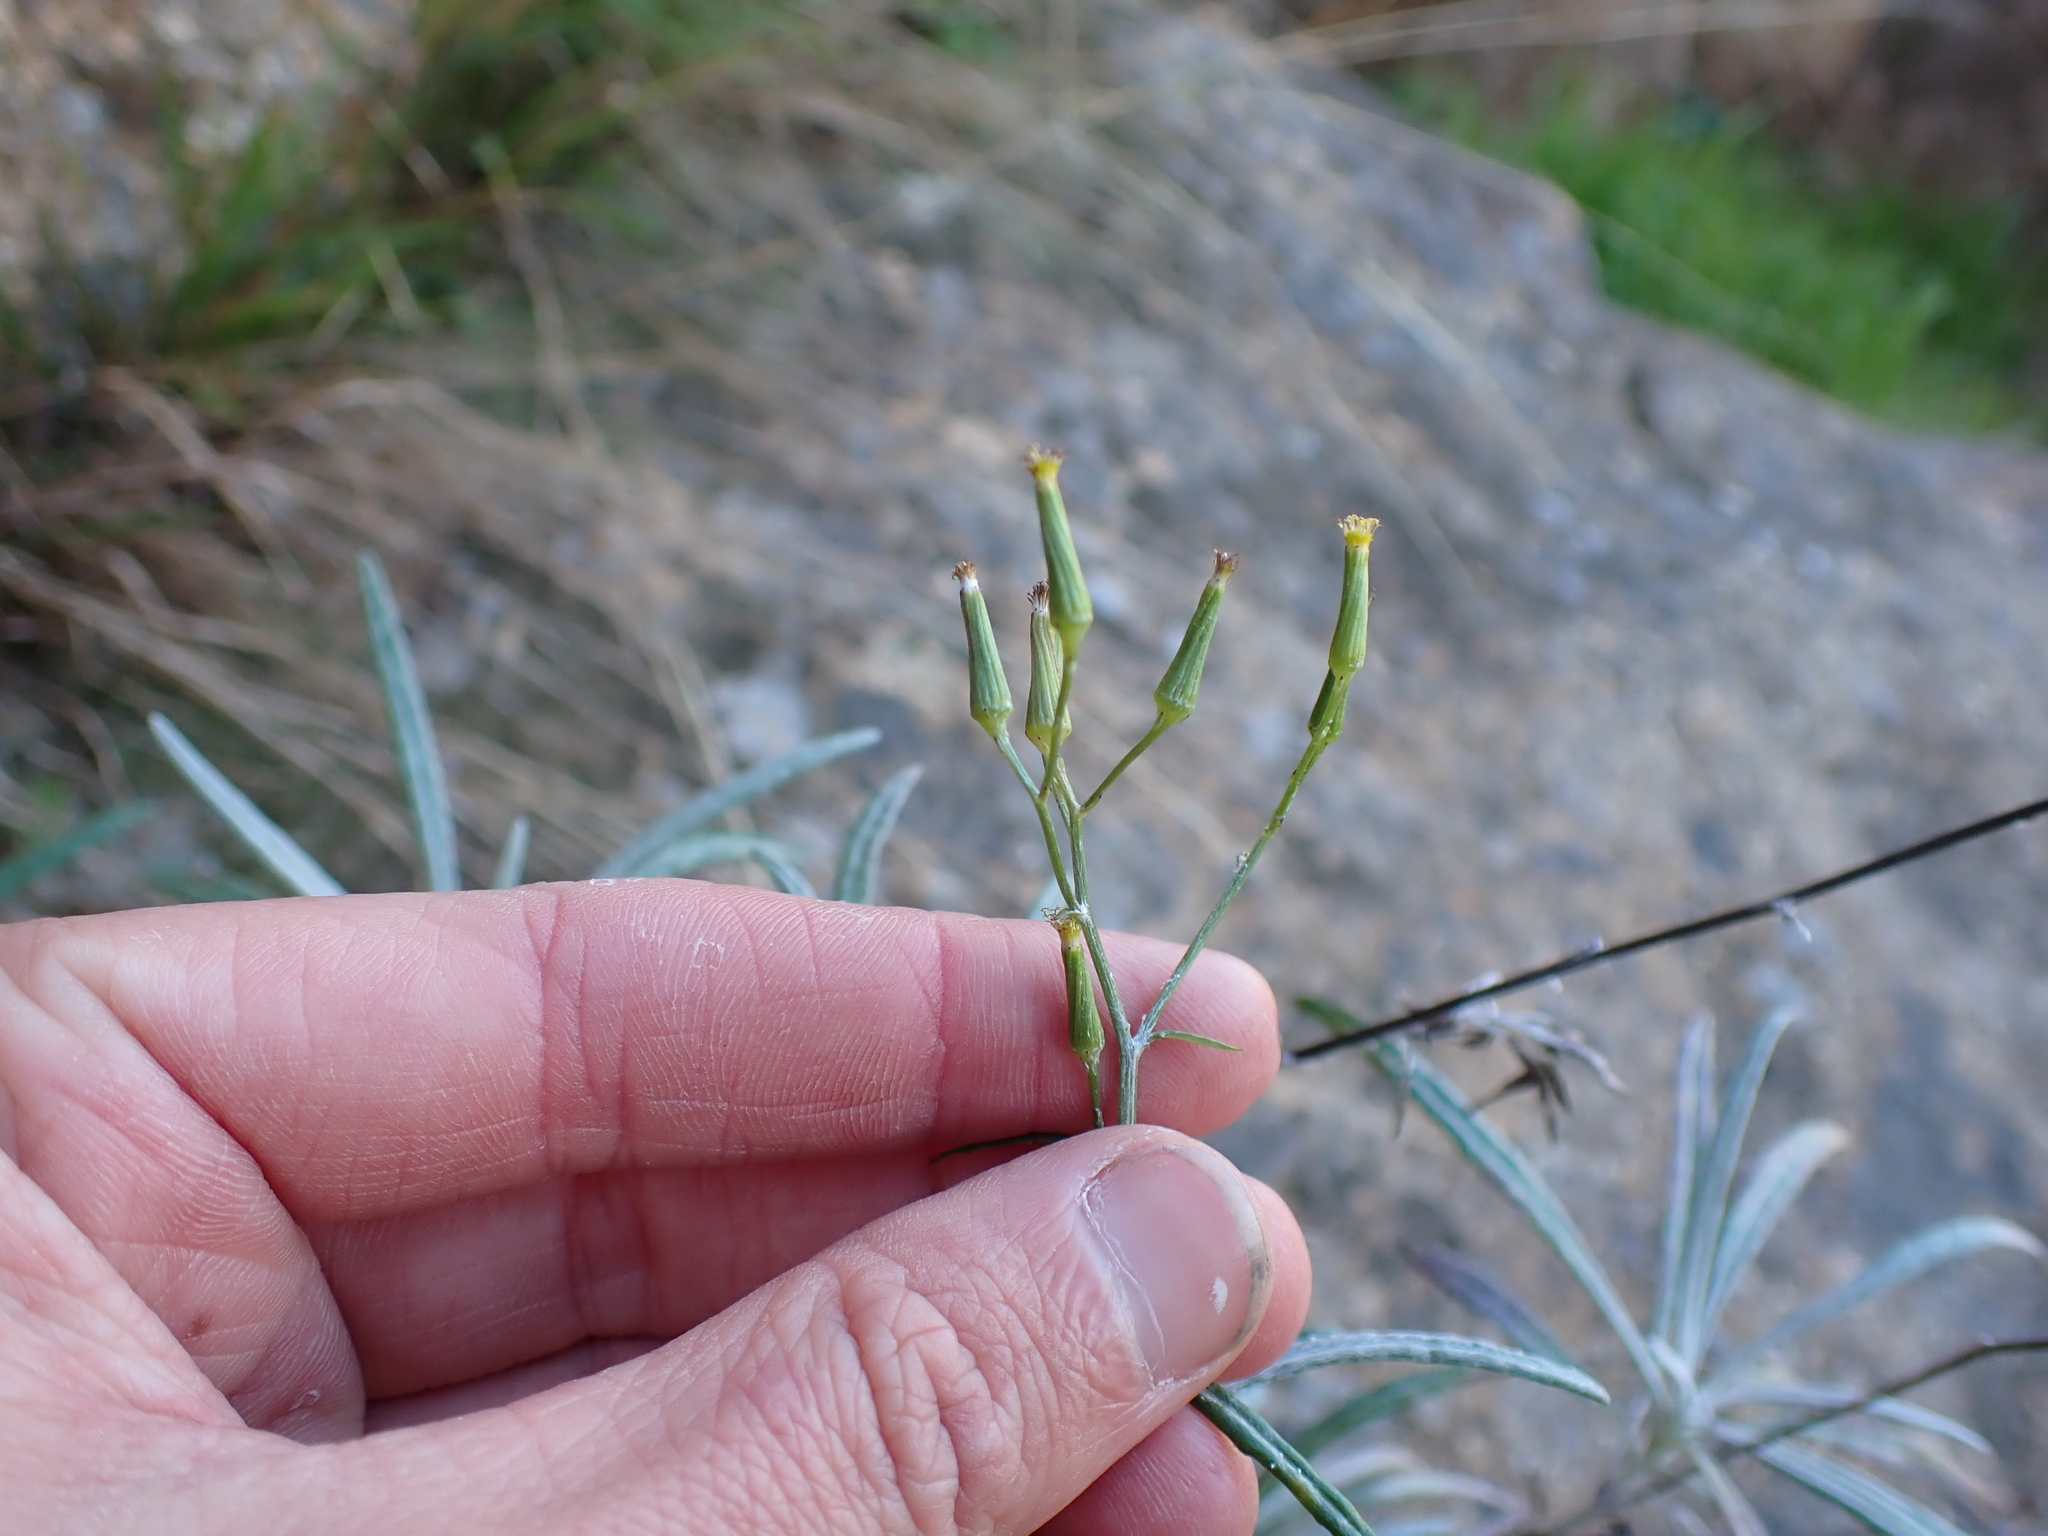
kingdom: Plantae
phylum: Tracheophyta
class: Magnoliopsida
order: Asterales
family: Asteraceae
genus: Senecio
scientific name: Senecio quadridentatus
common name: Cotton fireweed
